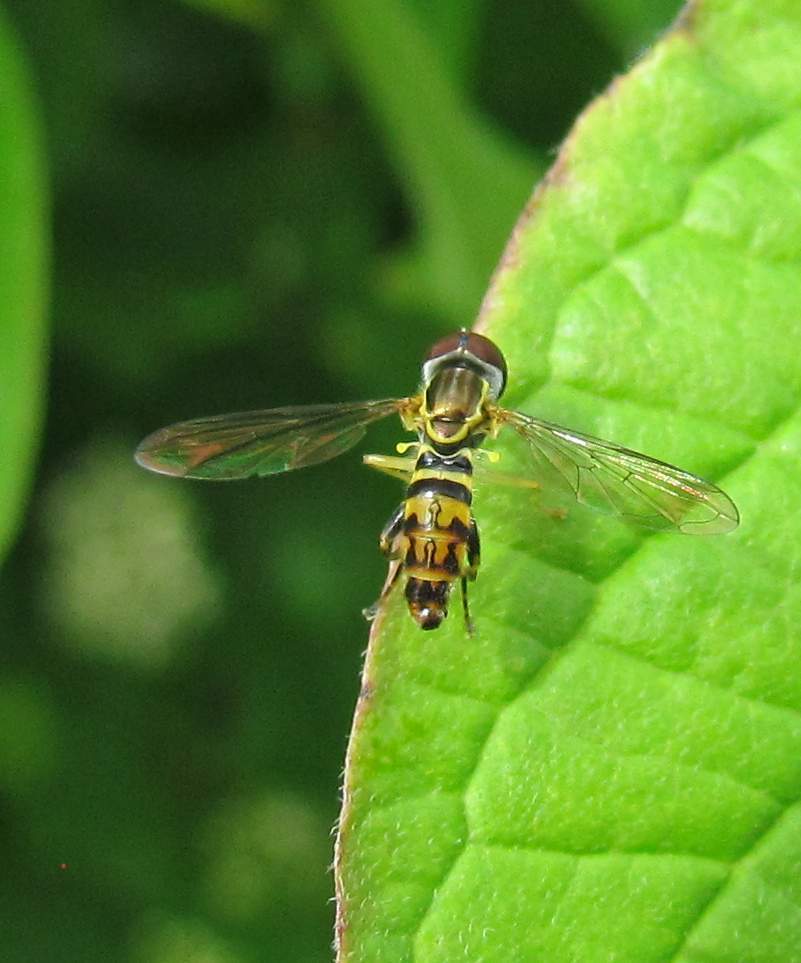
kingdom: Animalia
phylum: Arthropoda
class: Insecta
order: Diptera
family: Syrphidae
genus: Toxomerus
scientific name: Toxomerus geminatus
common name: Eastern calligrapher
